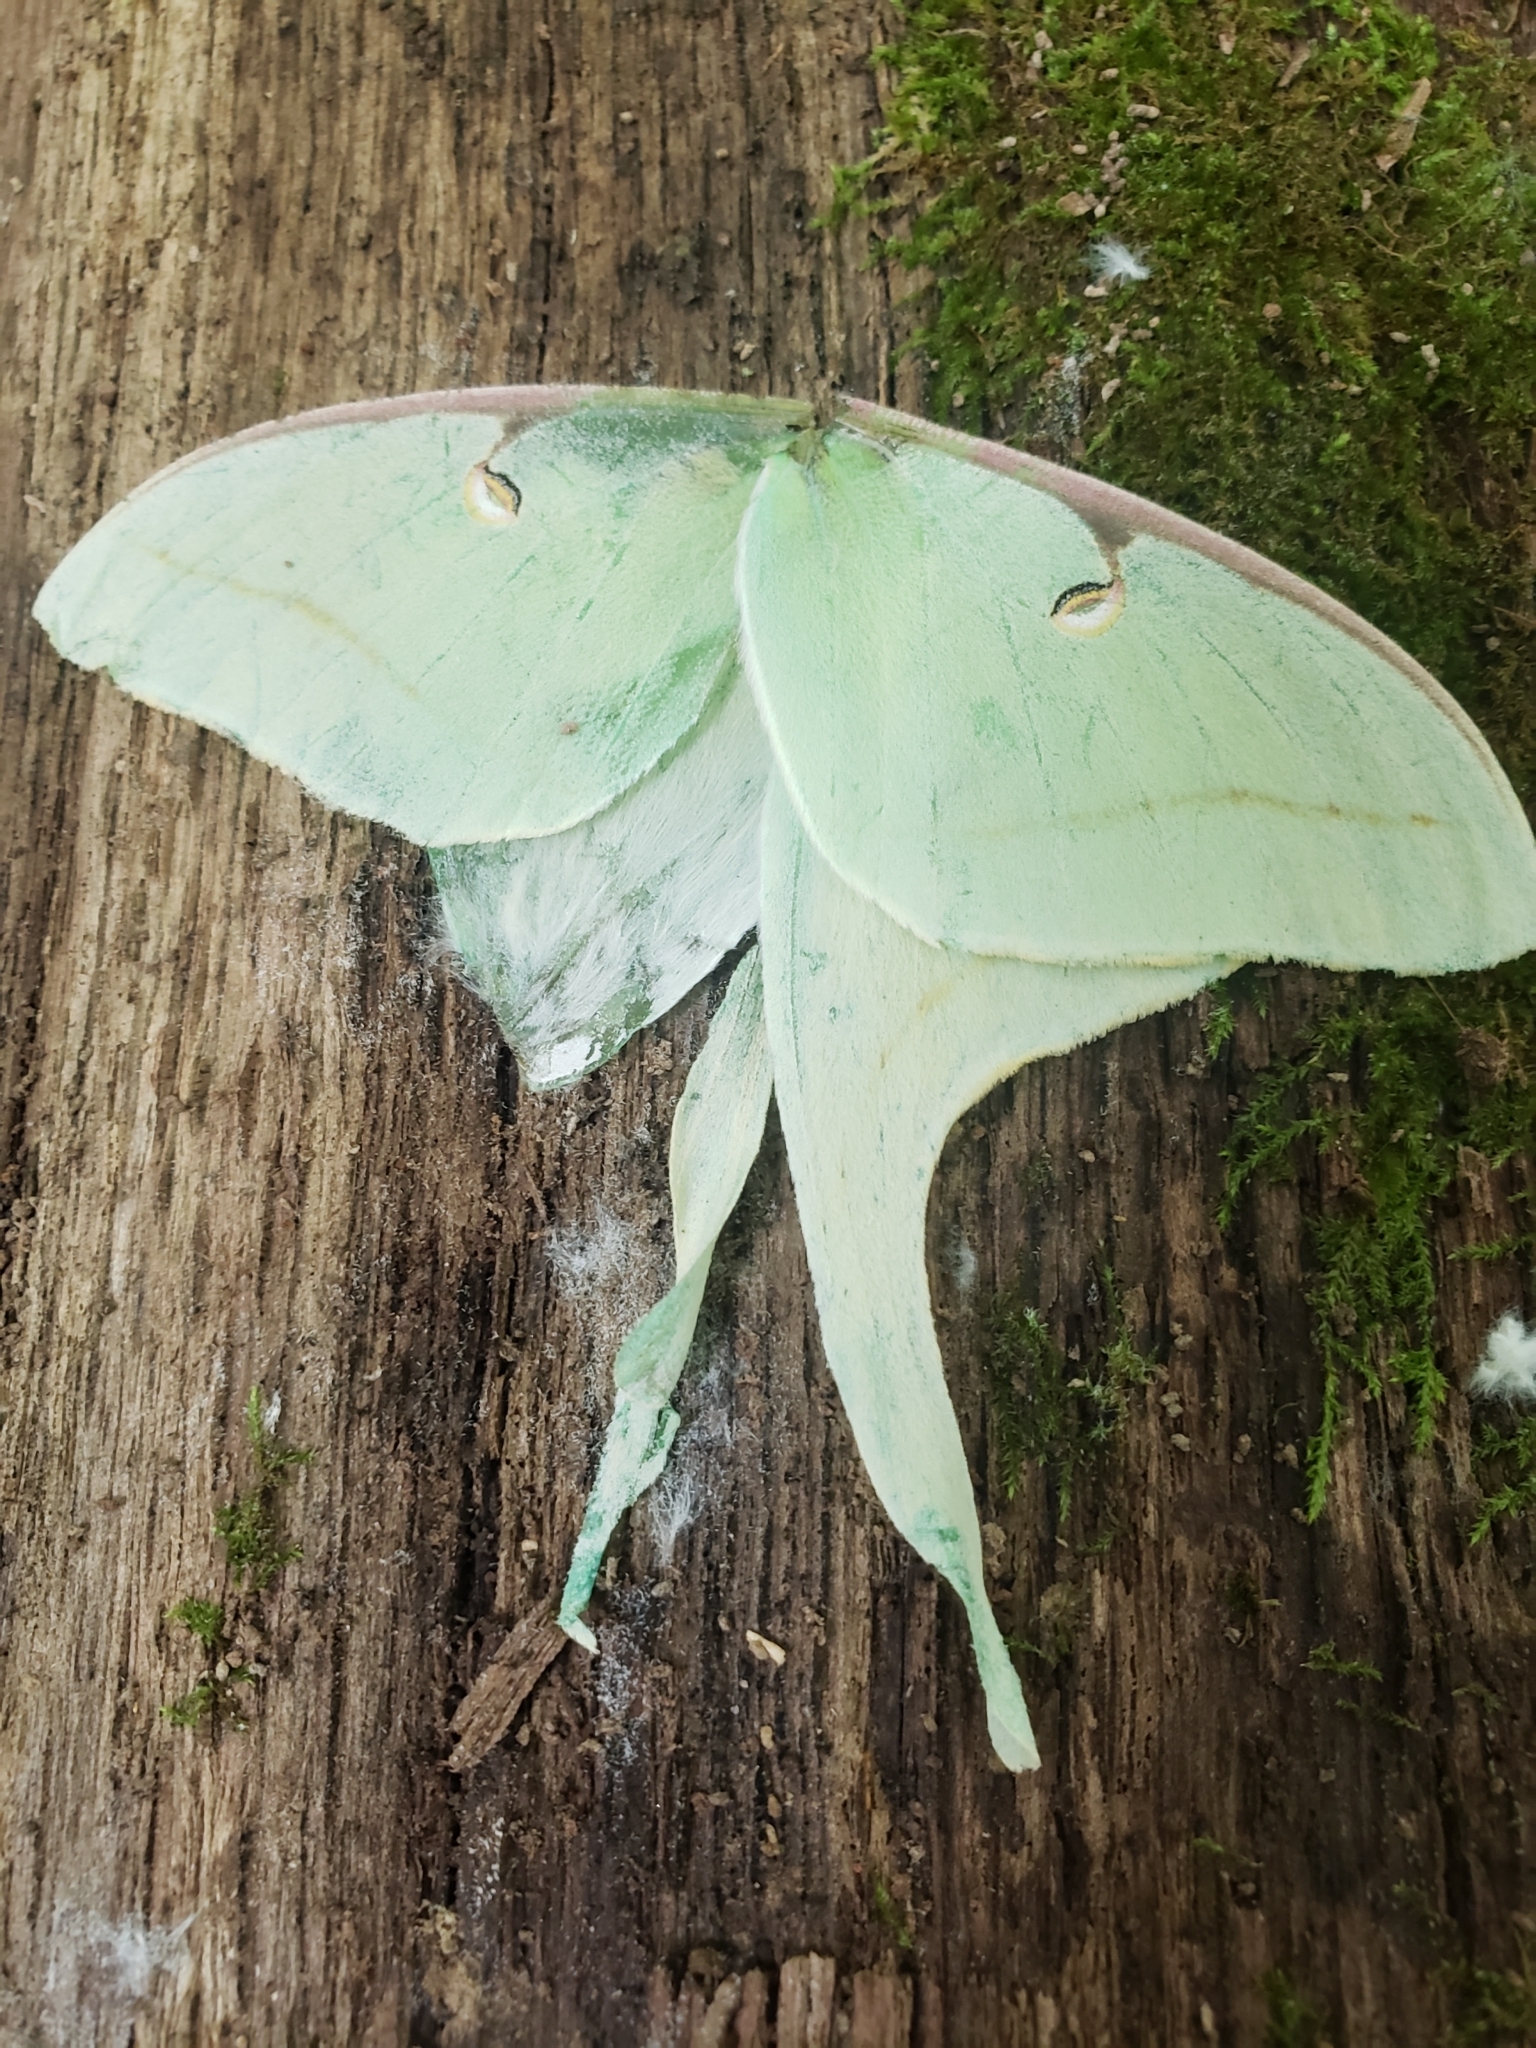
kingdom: Animalia
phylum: Arthropoda
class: Insecta
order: Lepidoptera
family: Saturniidae
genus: Actias
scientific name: Actias luna
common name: Luna moth
